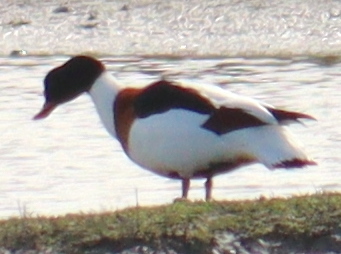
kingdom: Animalia
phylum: Chordata
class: Aves
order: Anseriformes
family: Anatidae
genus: Tadorna
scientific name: Tadorna tadorna
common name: Common shelduck
